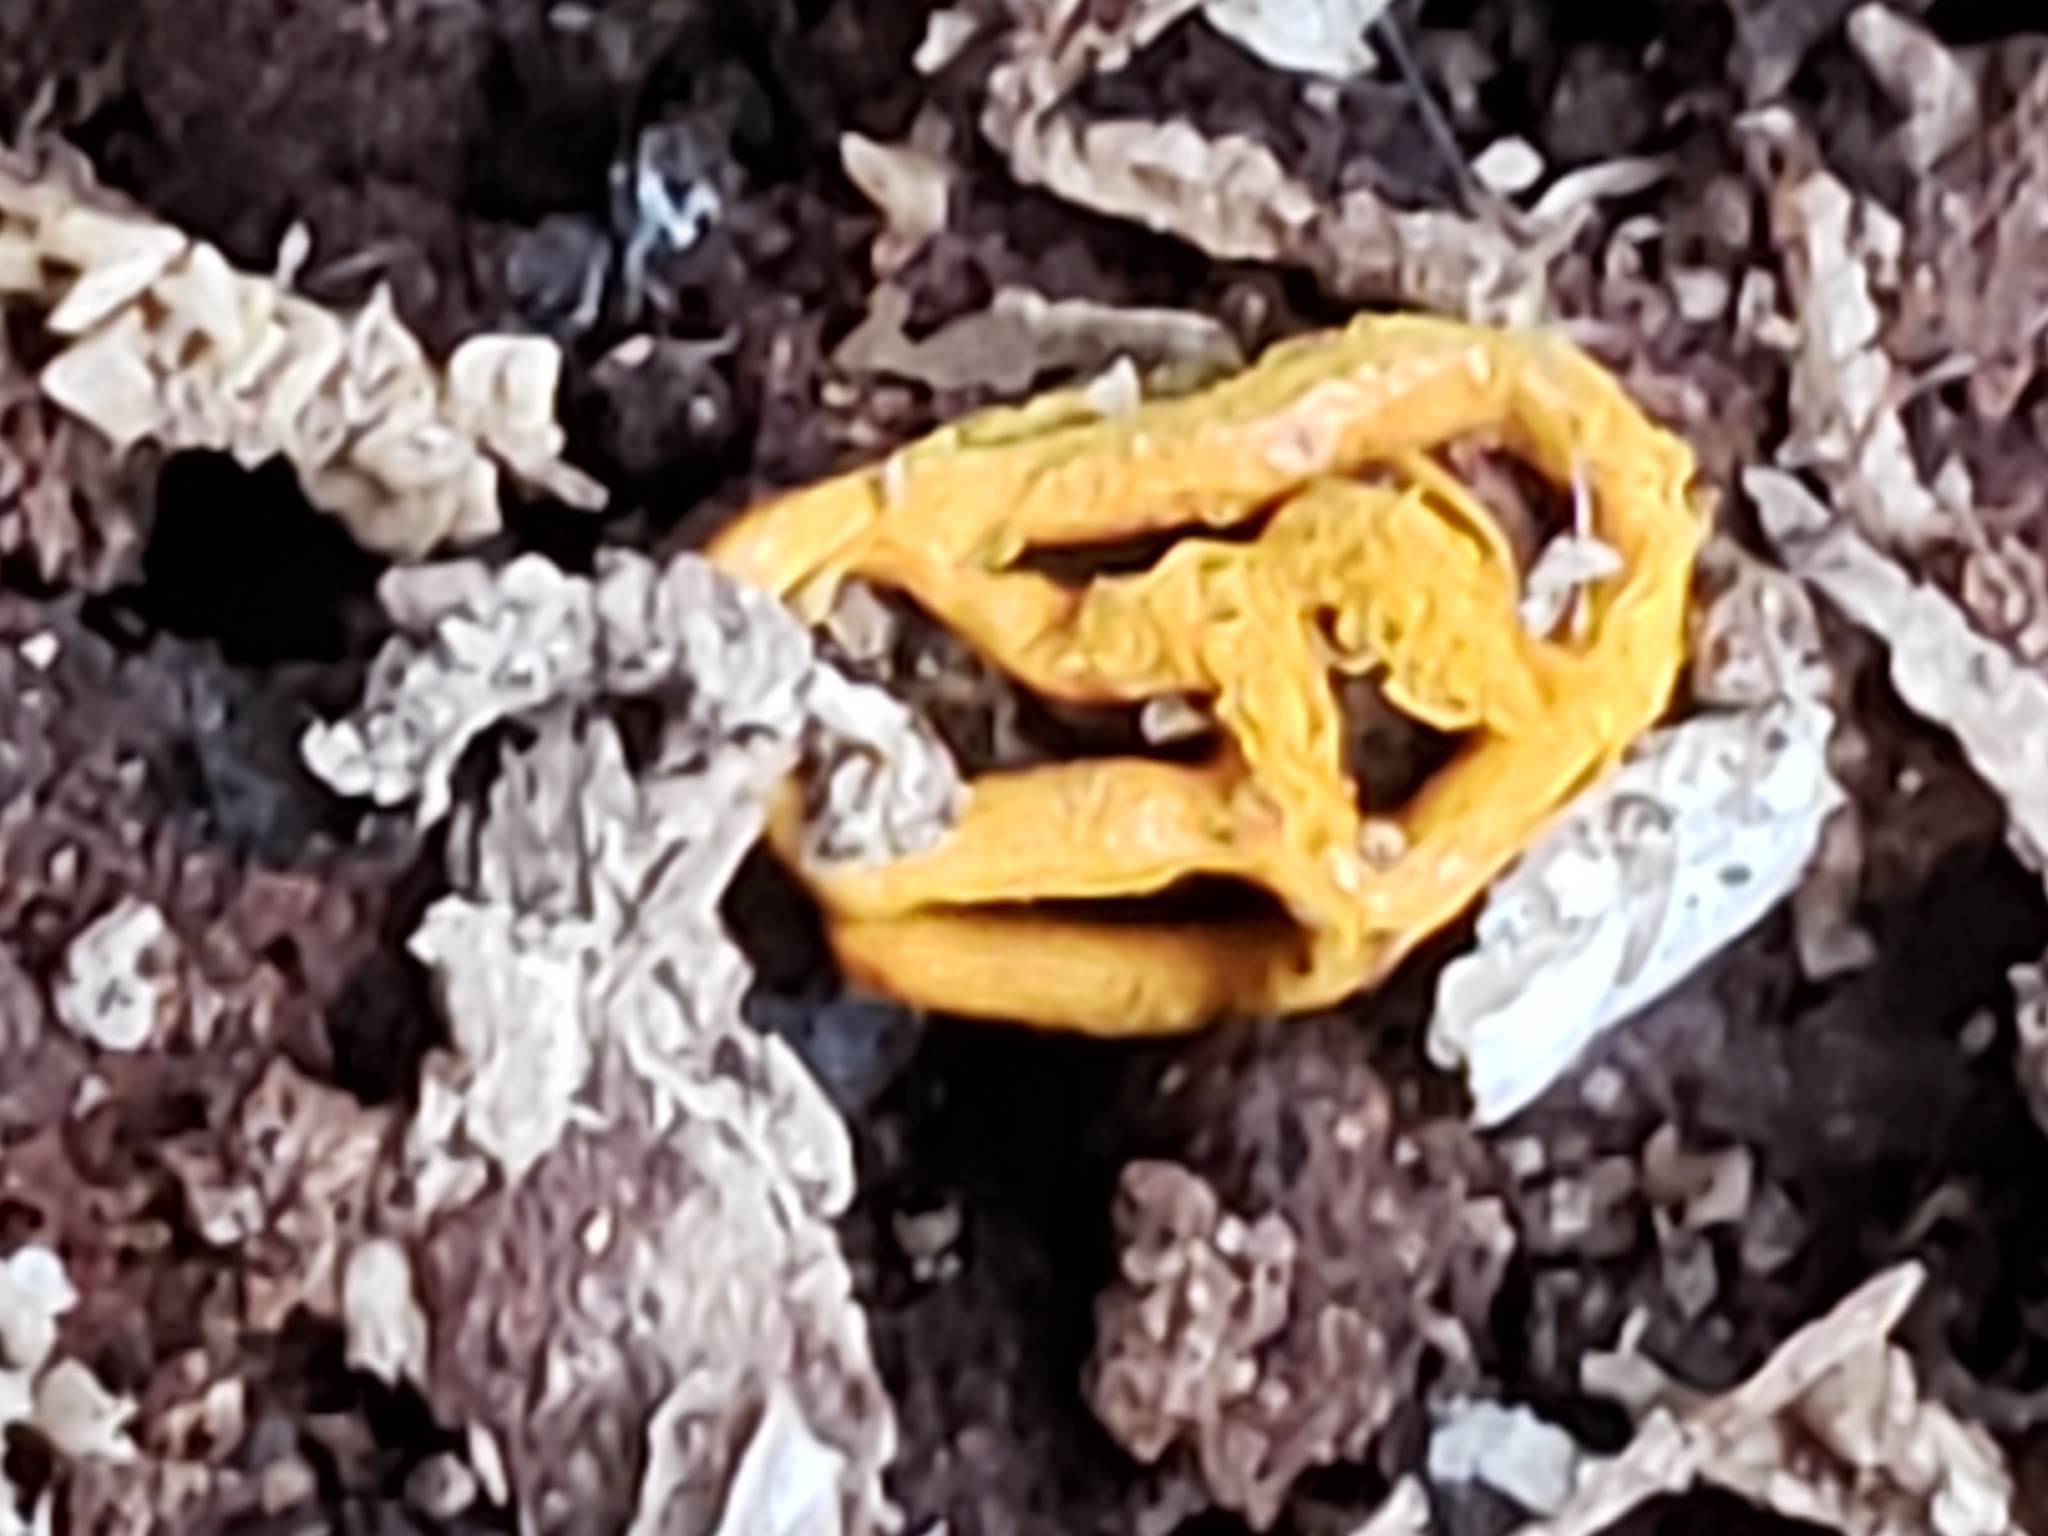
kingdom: Protozoa
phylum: Mycetozoa
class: Myxomycetes
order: Trichiales
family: Arcyriaceae
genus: Hemitrichia
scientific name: Hemitrichia serpula
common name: Pretzel slime mold
